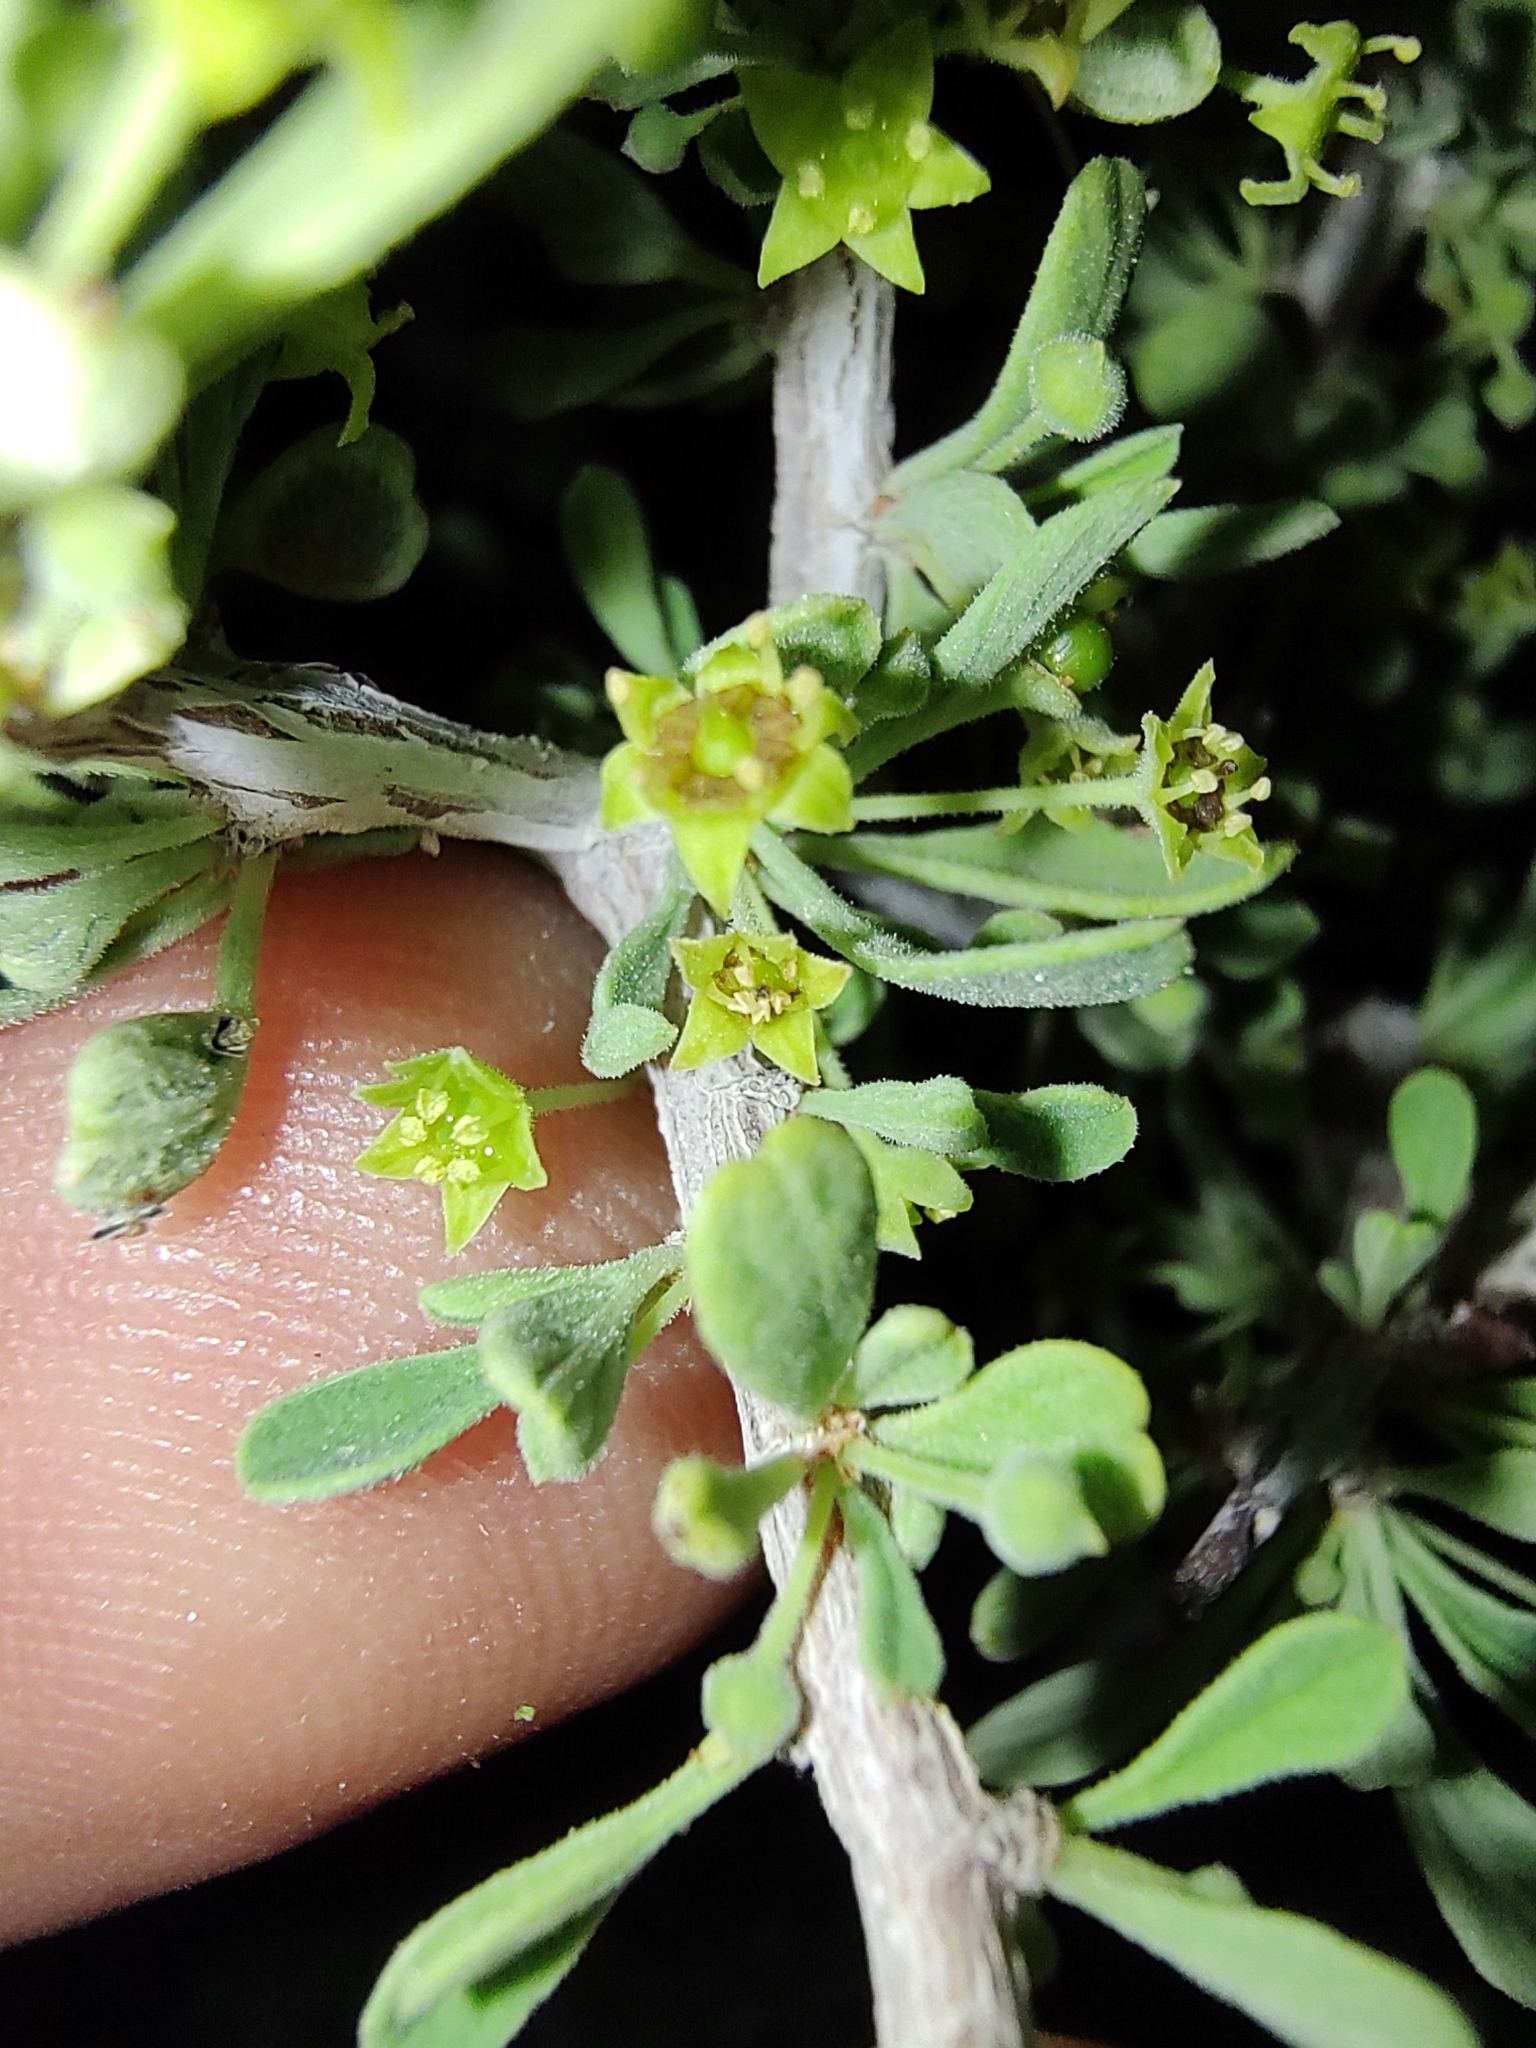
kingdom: Plantae
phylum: Tracheophyta
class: Magnoliopsida
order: Rosales
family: Rhamnaceae
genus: Condalia
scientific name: Condalia globosa
